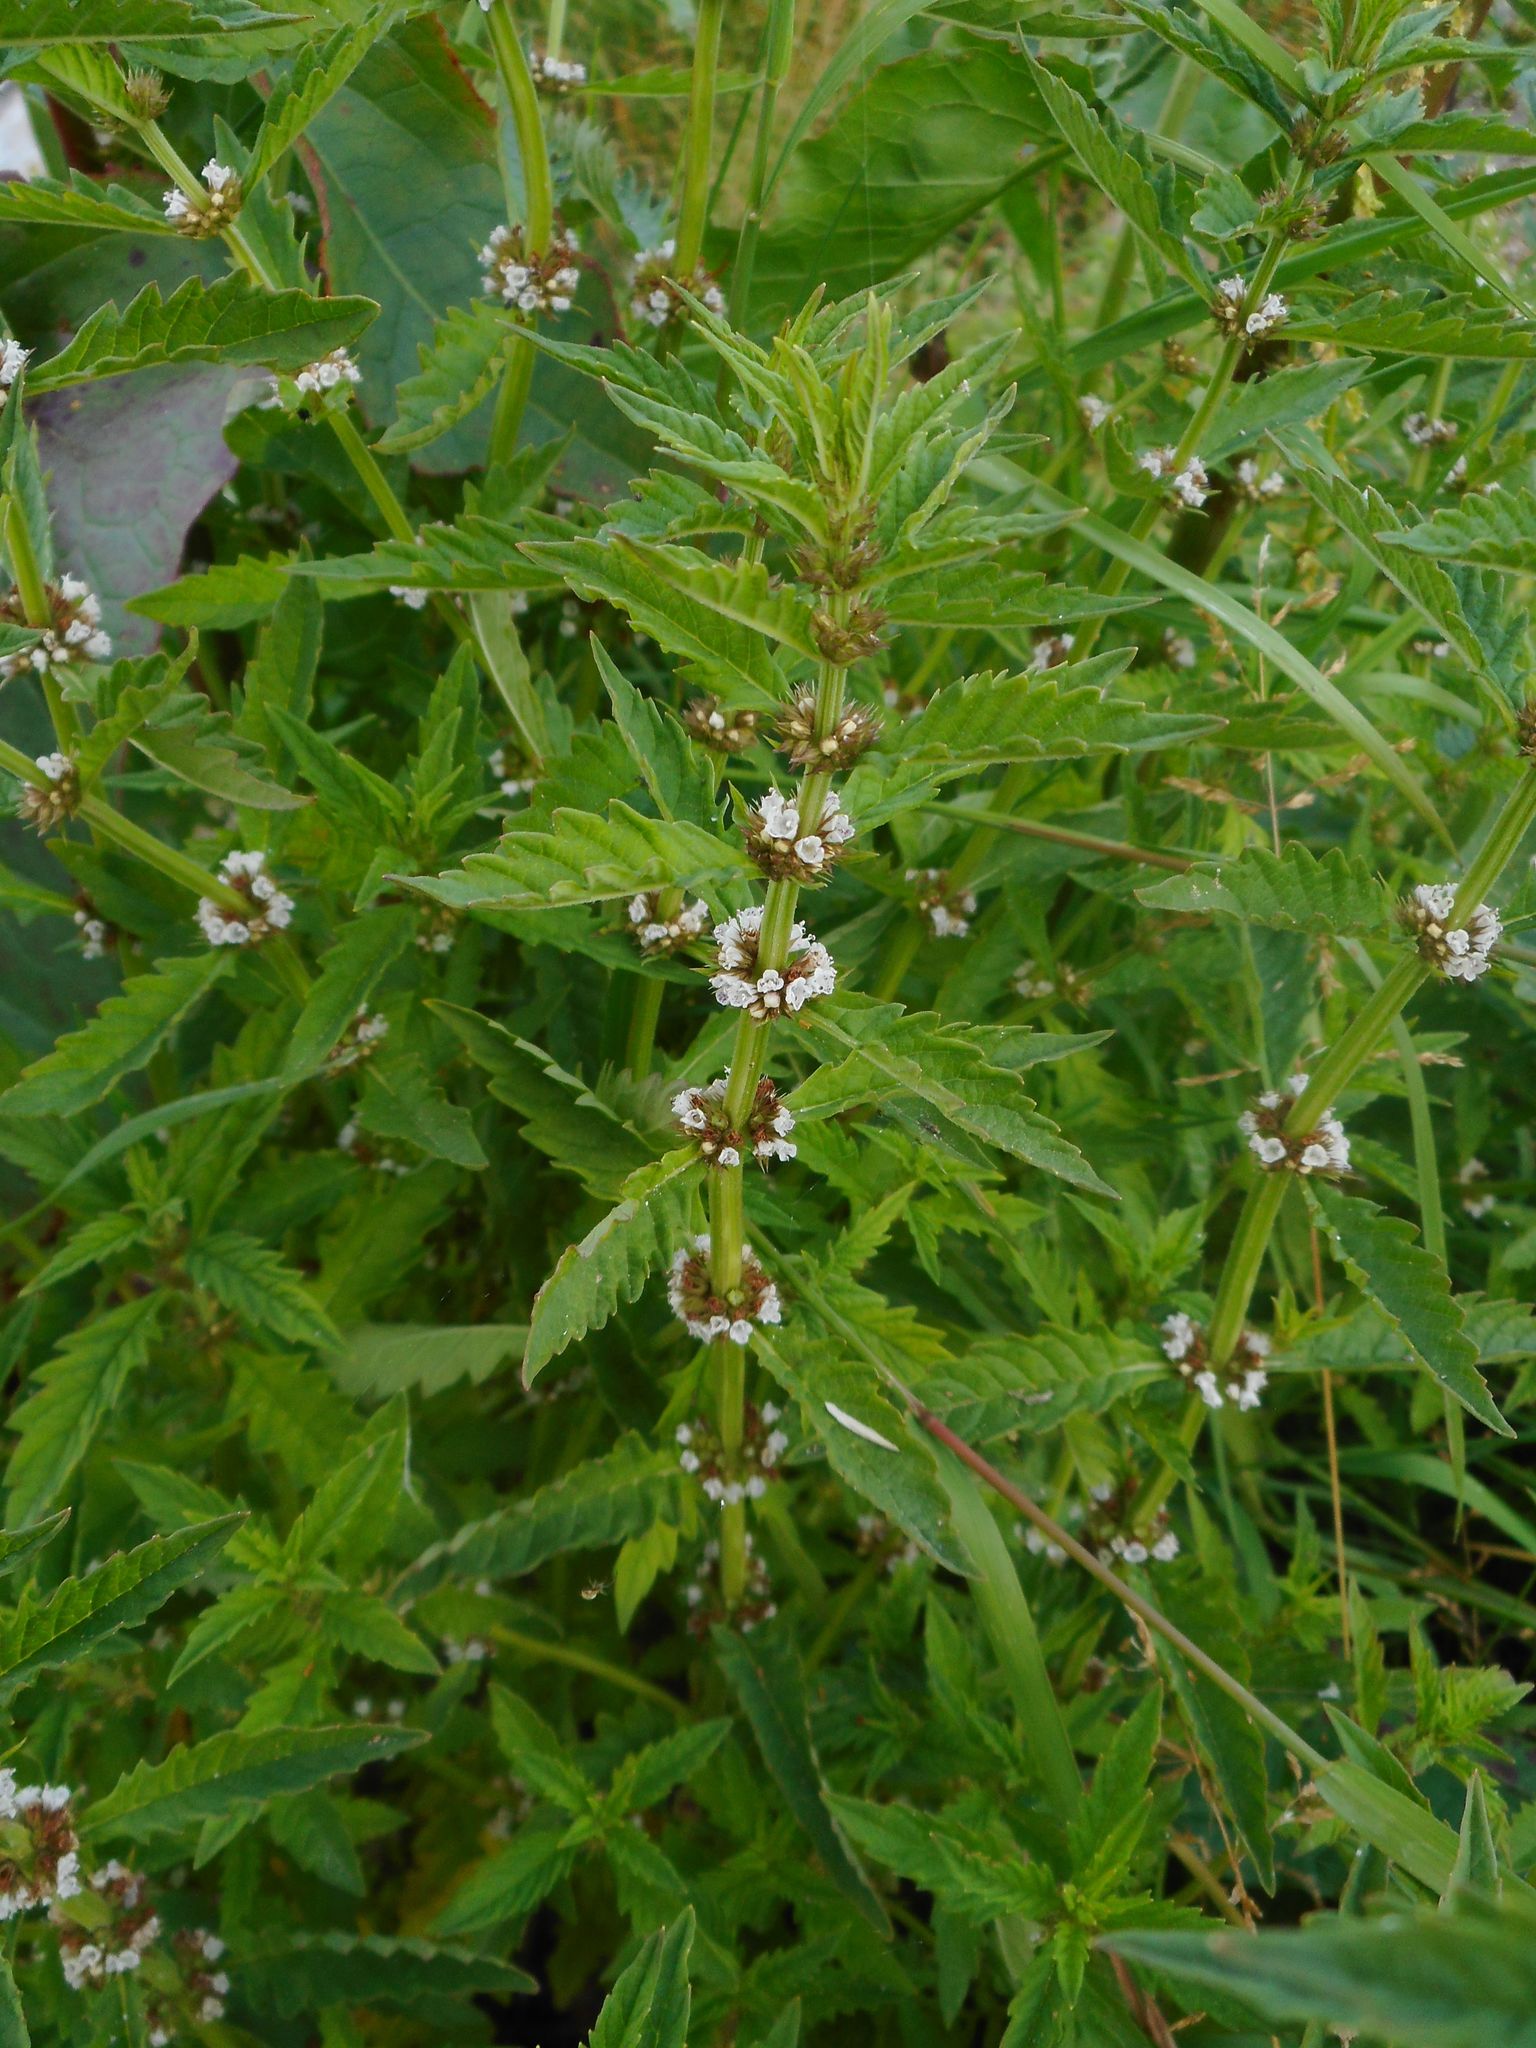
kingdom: Plantae
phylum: Tracheophyta
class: Magnoliopsida
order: Lamiales
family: Lamiaceae
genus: Lycopus
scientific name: Lycopus europaeus
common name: European bugleweed
